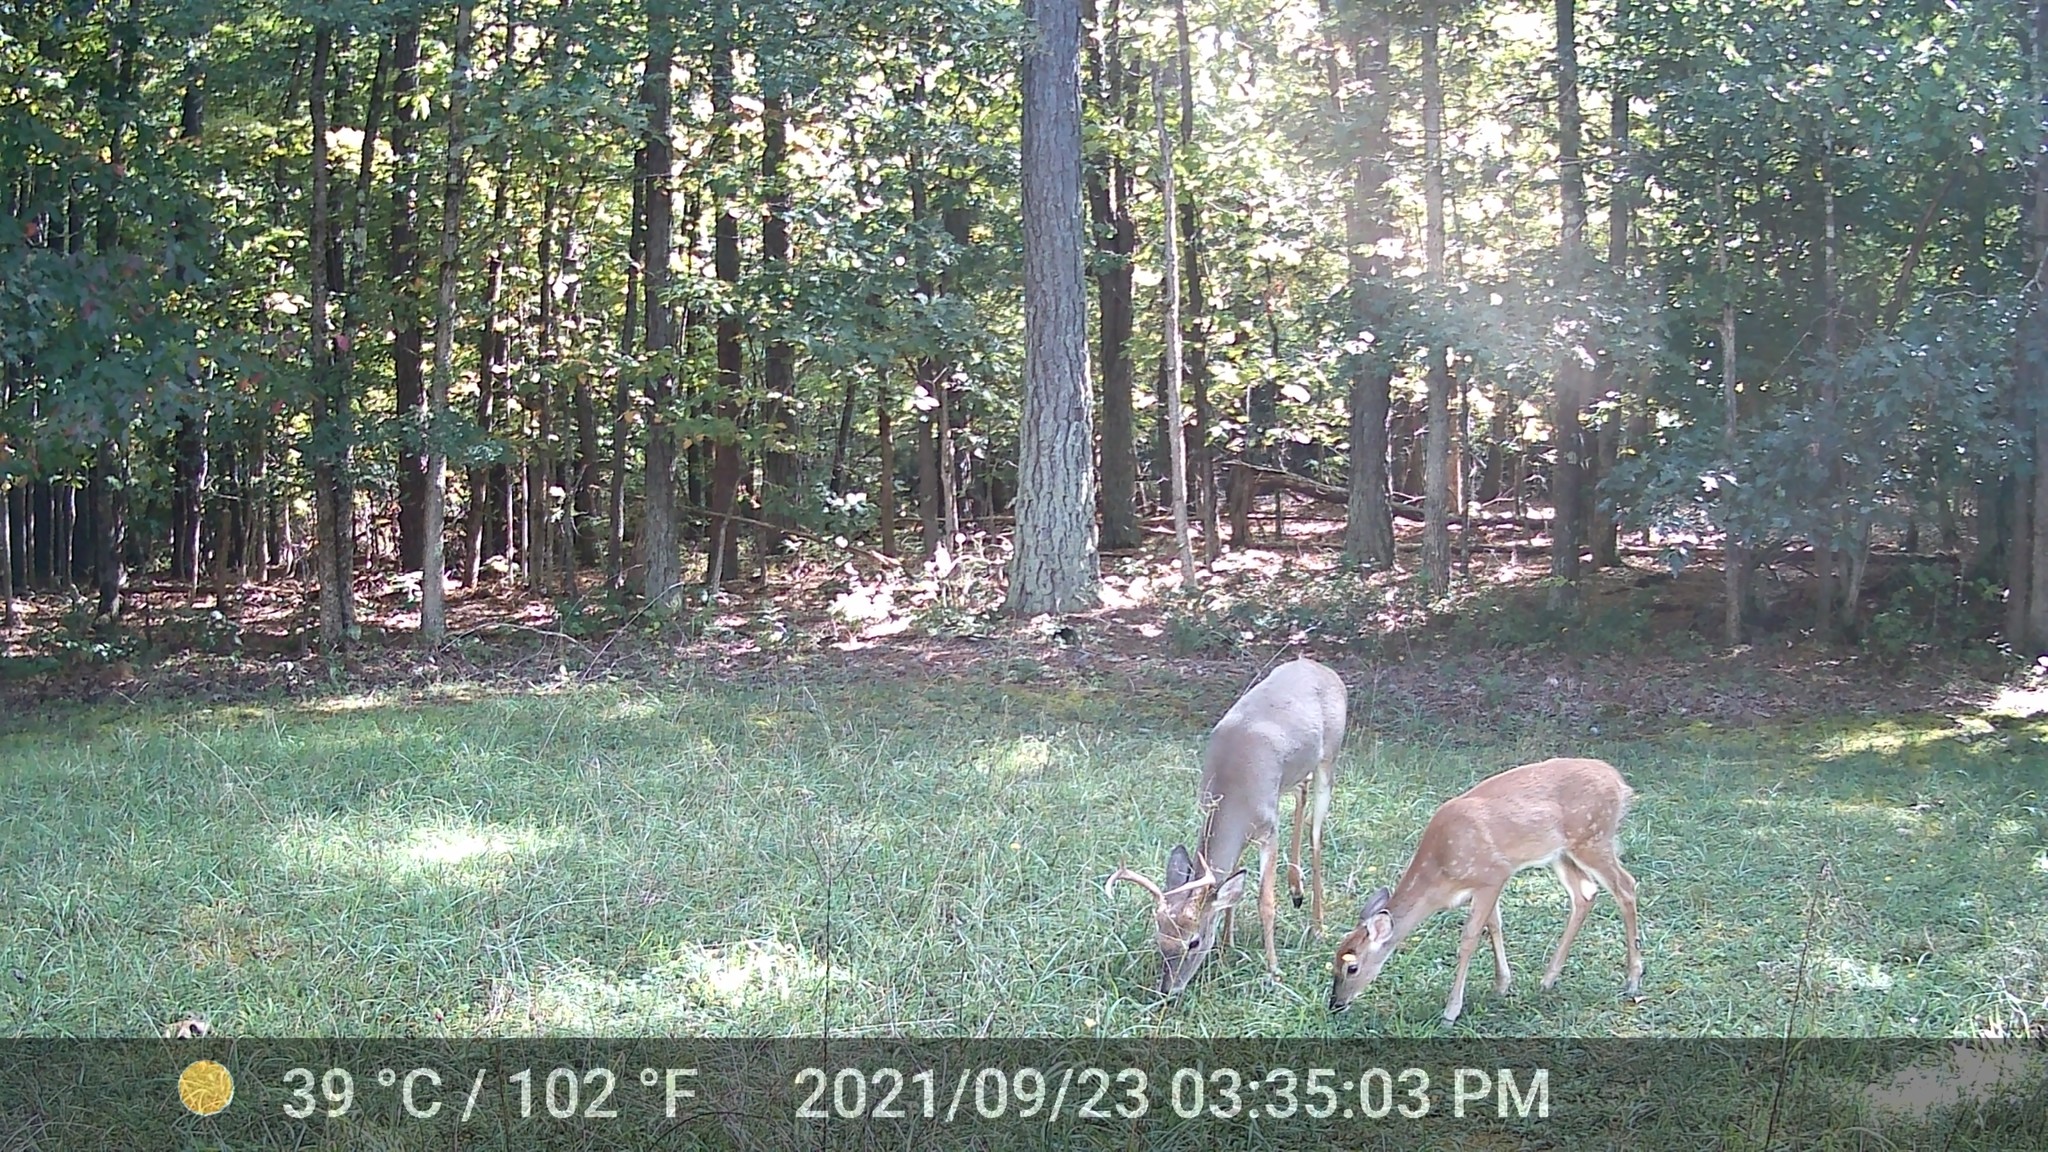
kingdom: Animalia
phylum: Chordata
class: Mammalia
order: Artiodactyla
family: Cervidae
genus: Odocoileus
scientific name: Odocoileus virginianus
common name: White-tailed deer
